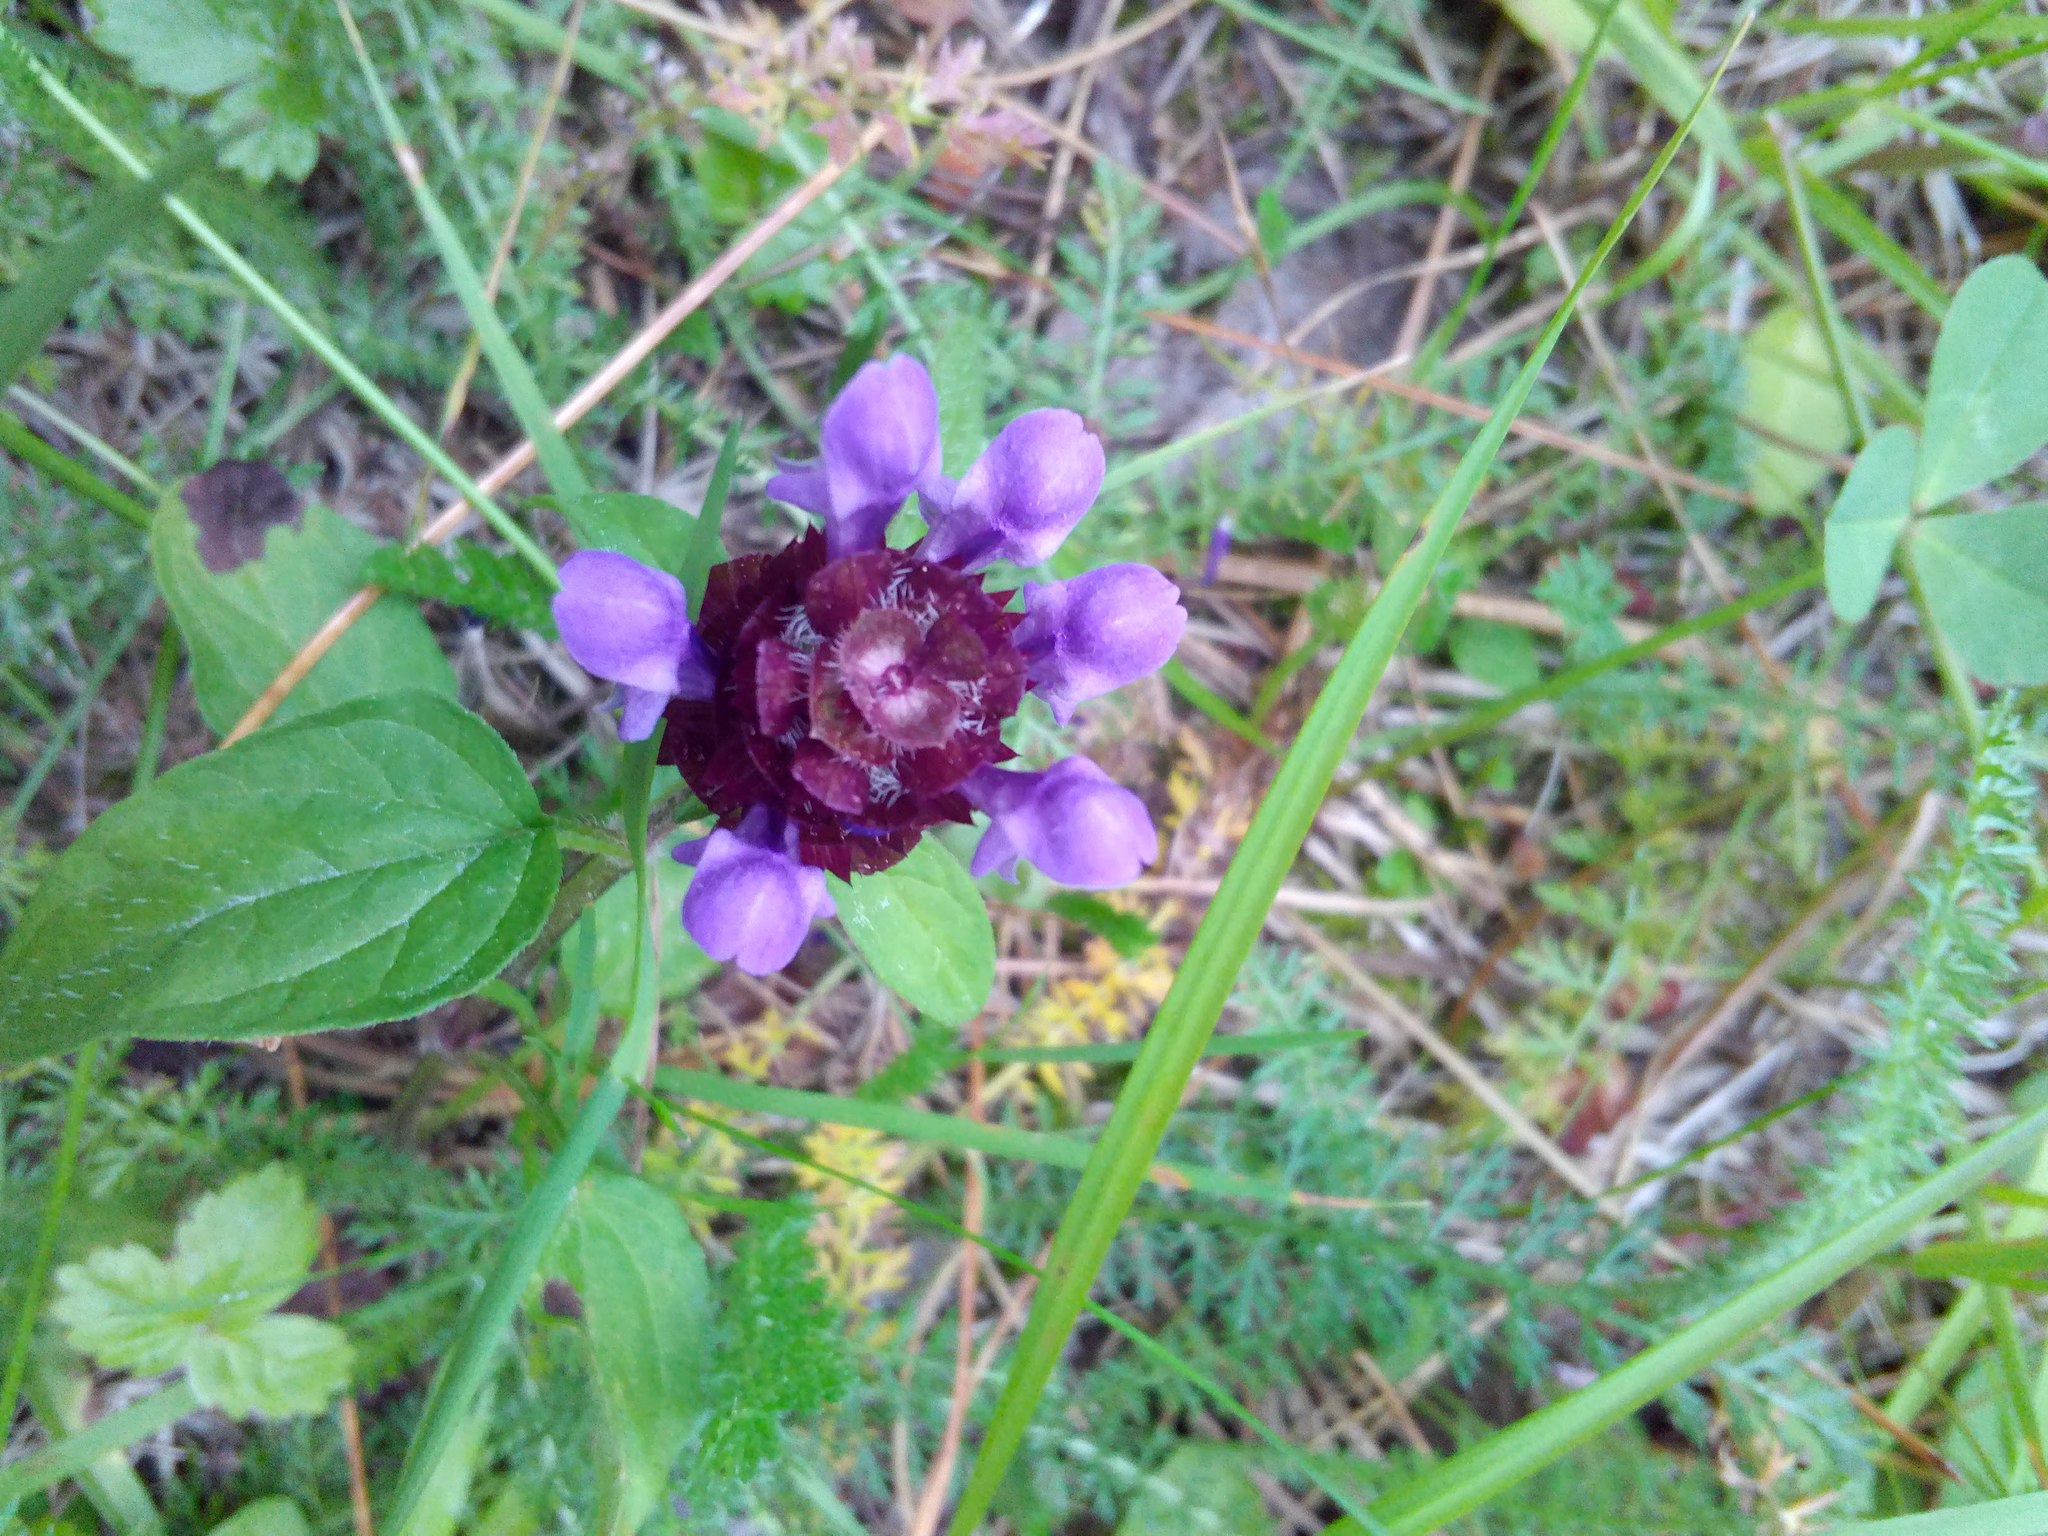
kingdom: Plantae
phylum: Tracheophyta
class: Magnoliopsida
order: Lamiales
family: Lamiaceae
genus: Prunella
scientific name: Prunella vulgaris
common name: Heal-all
